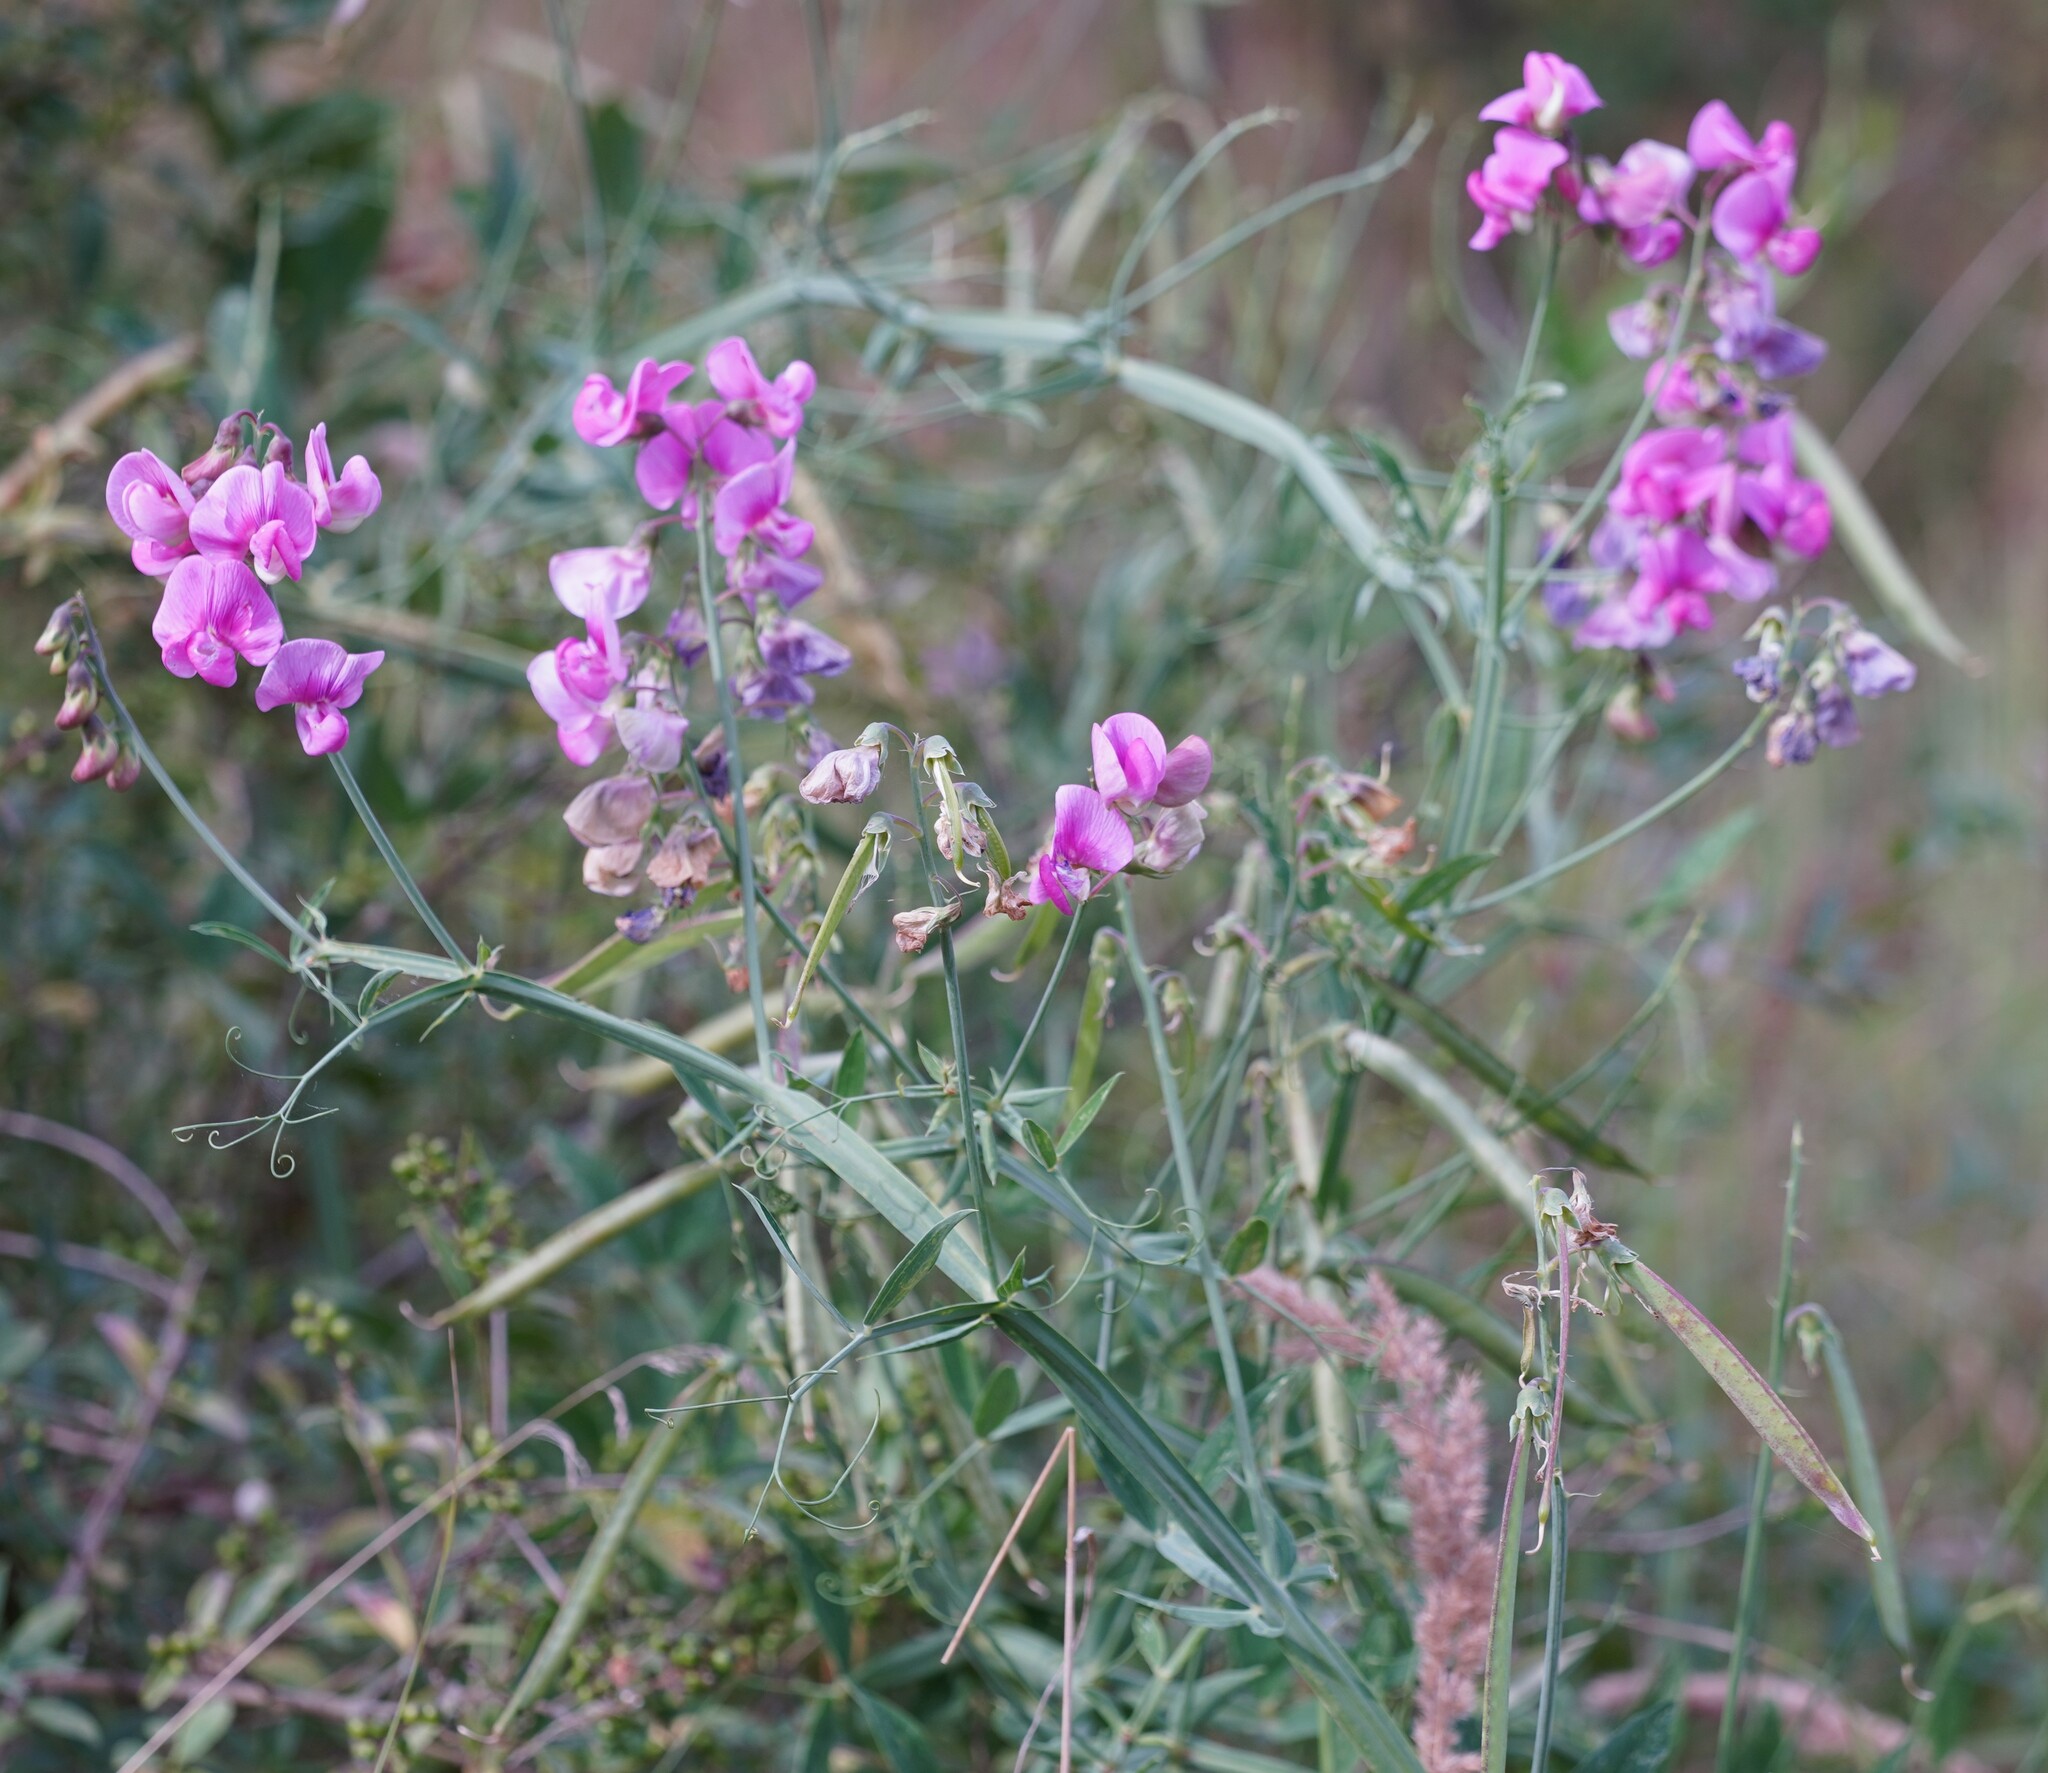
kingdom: Plantae
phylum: Tracheophyta
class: Magnoliopsida
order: Fabales
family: Fabaceae
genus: Lathyrus
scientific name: Lathyrus latifolius
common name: Perennial pea
